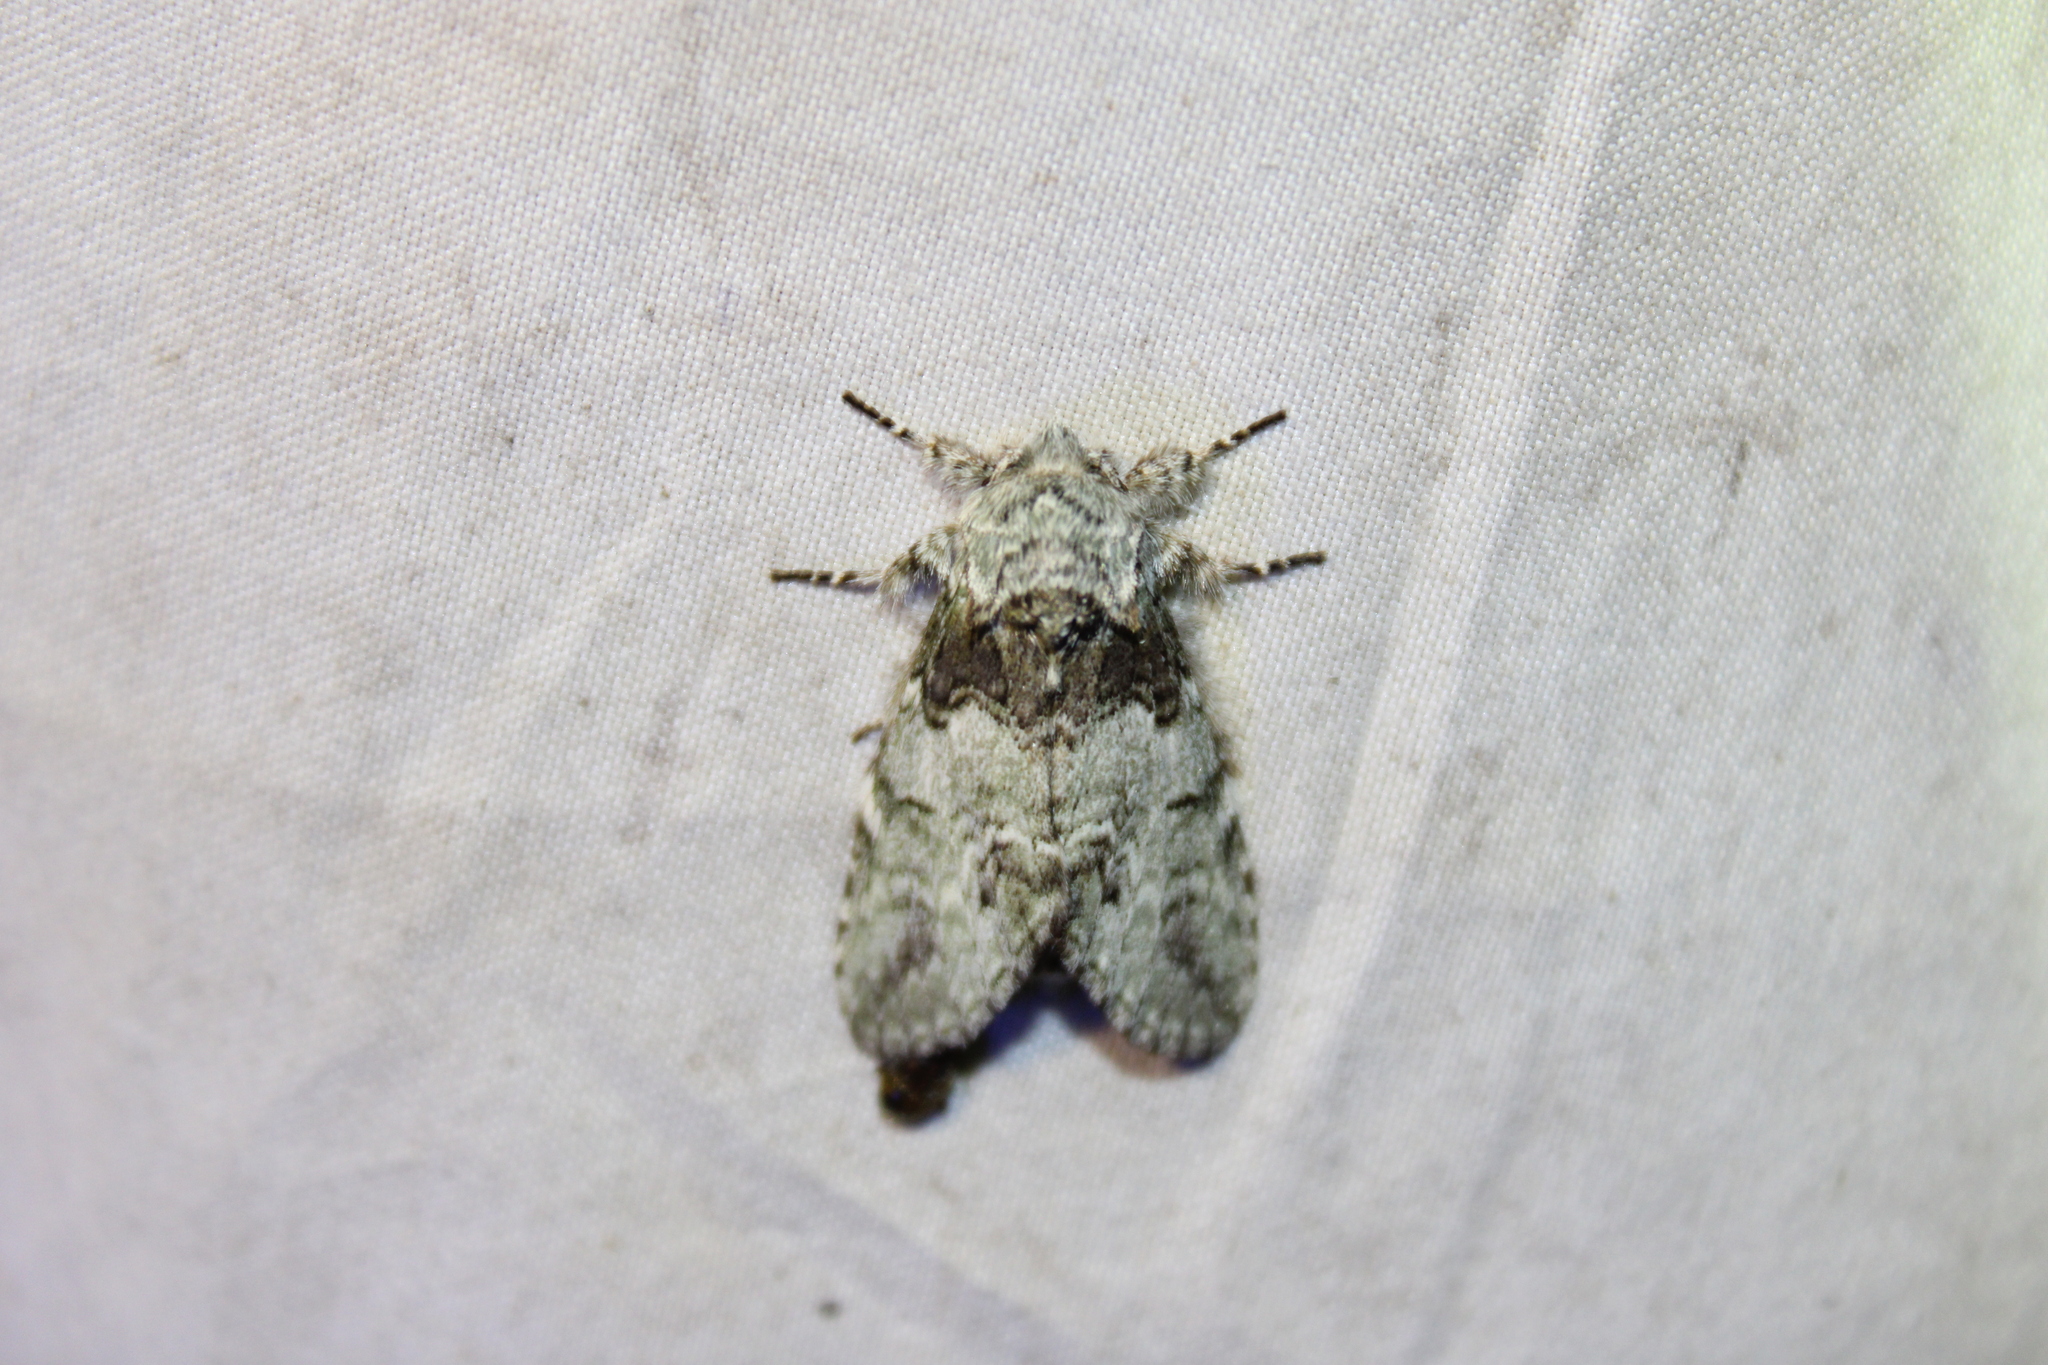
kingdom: Animalia
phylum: Arthropoda
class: Insecta
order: Lepidoptera
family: Notodontidae
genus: Macrurocampa
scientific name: Macrurocampa marthesia
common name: Mottled prominent
